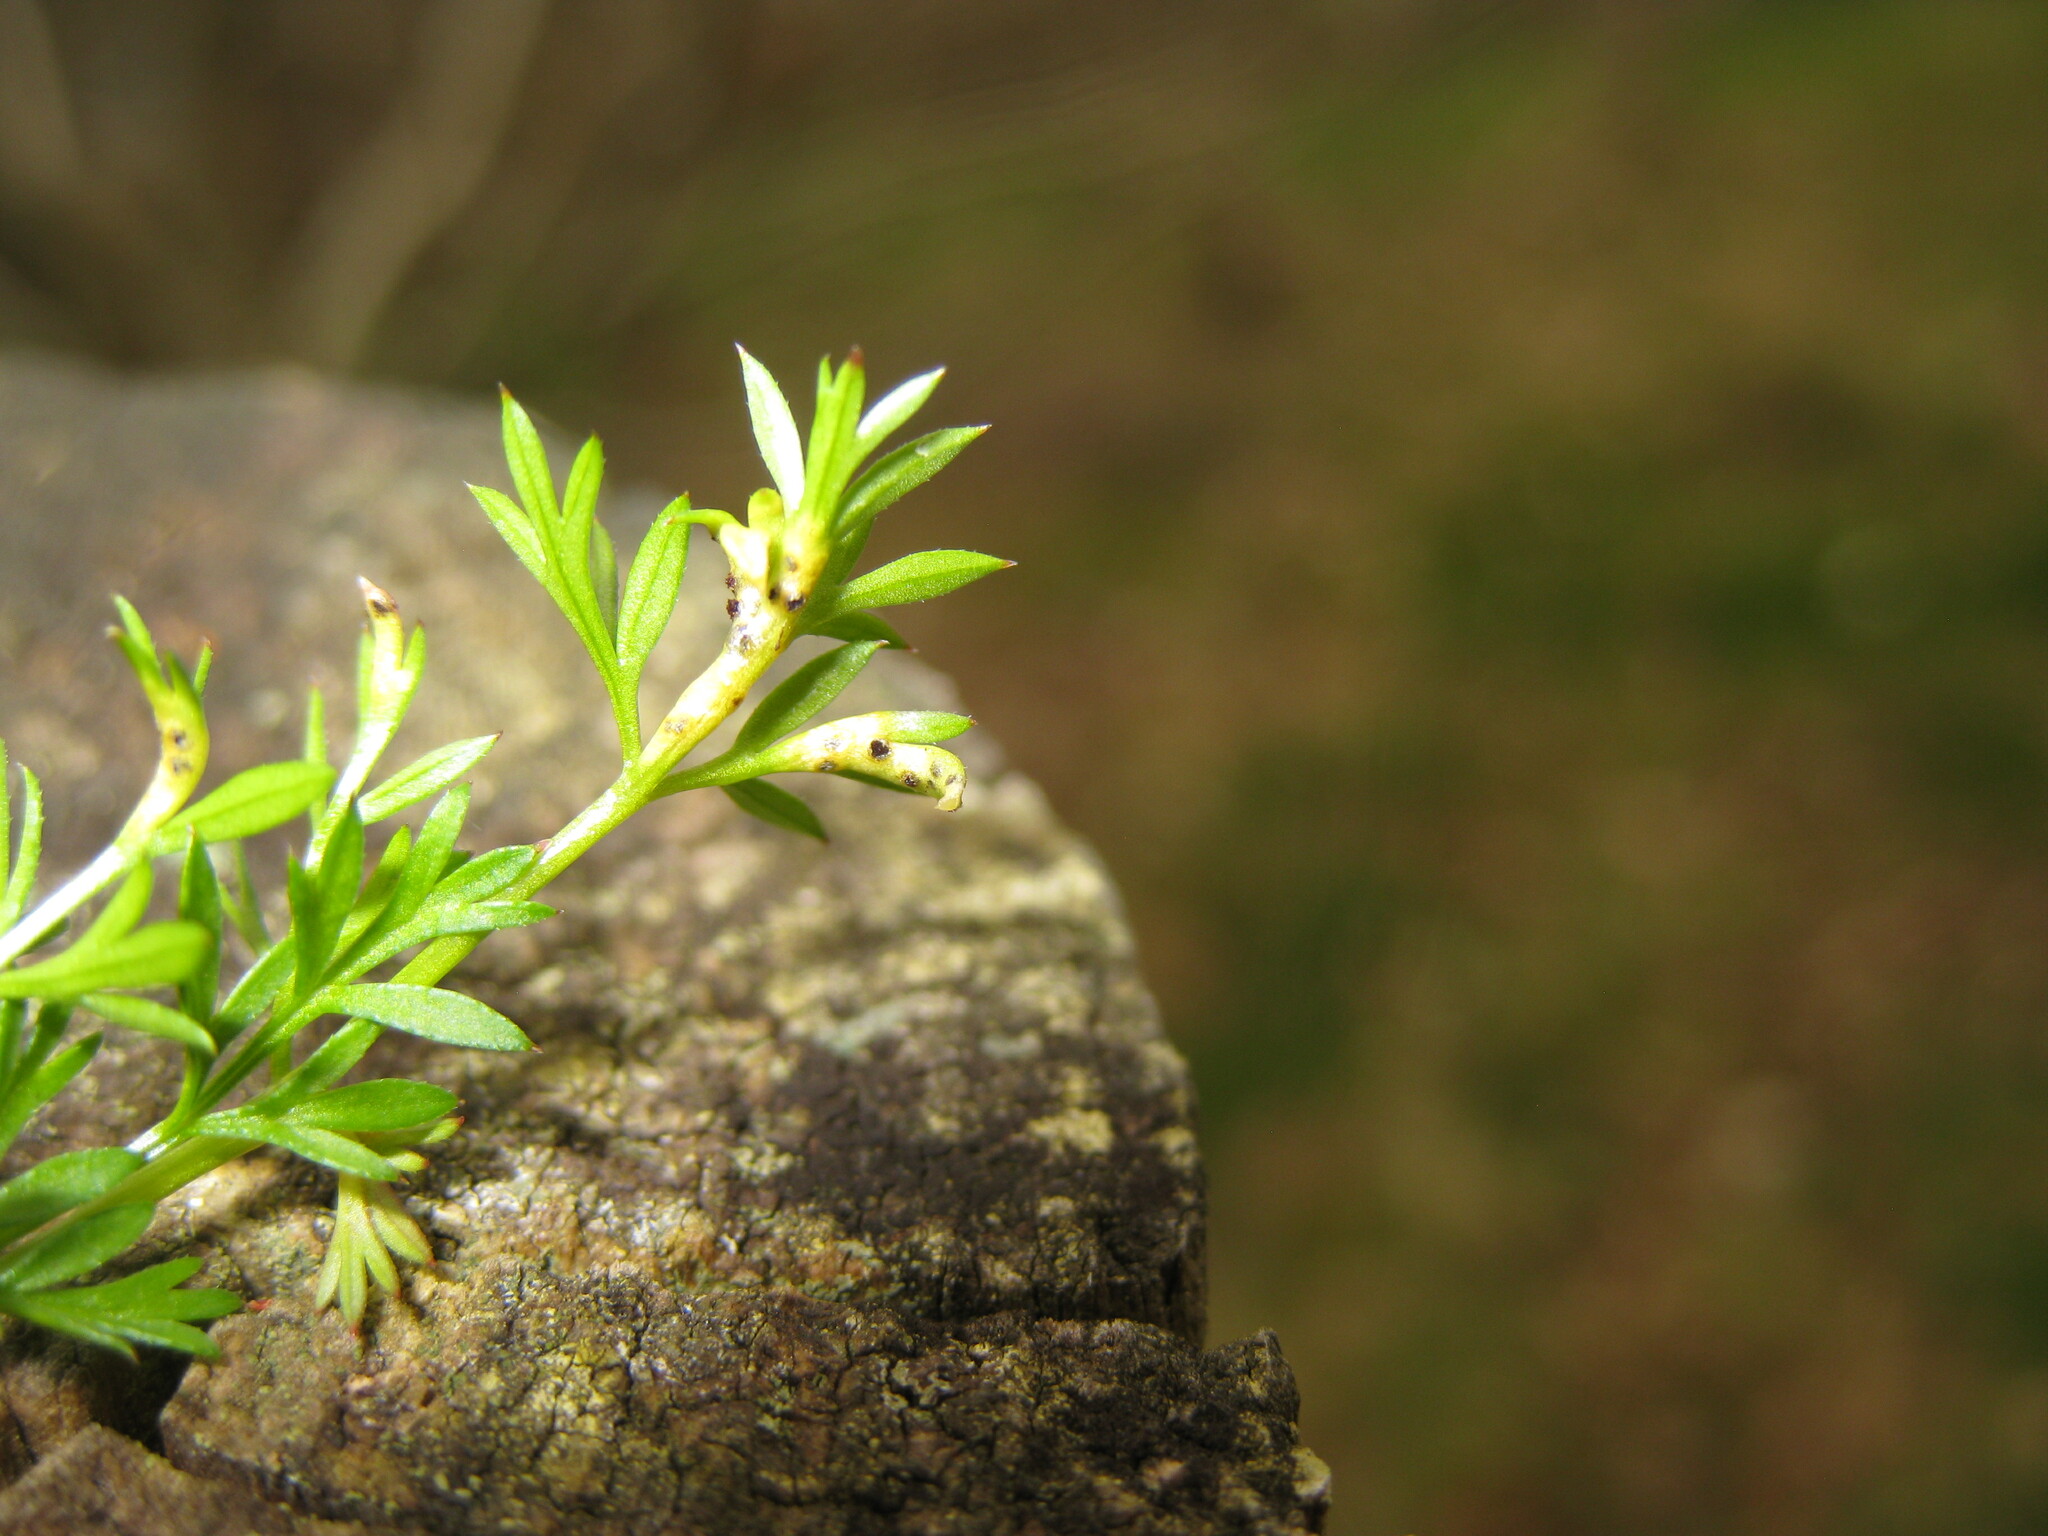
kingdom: Fungi
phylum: Basidiomycota
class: Pucciniomycetes
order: Pucciniales
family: Pucciniaceae
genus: Puccinia
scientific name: Puccinia tumida
